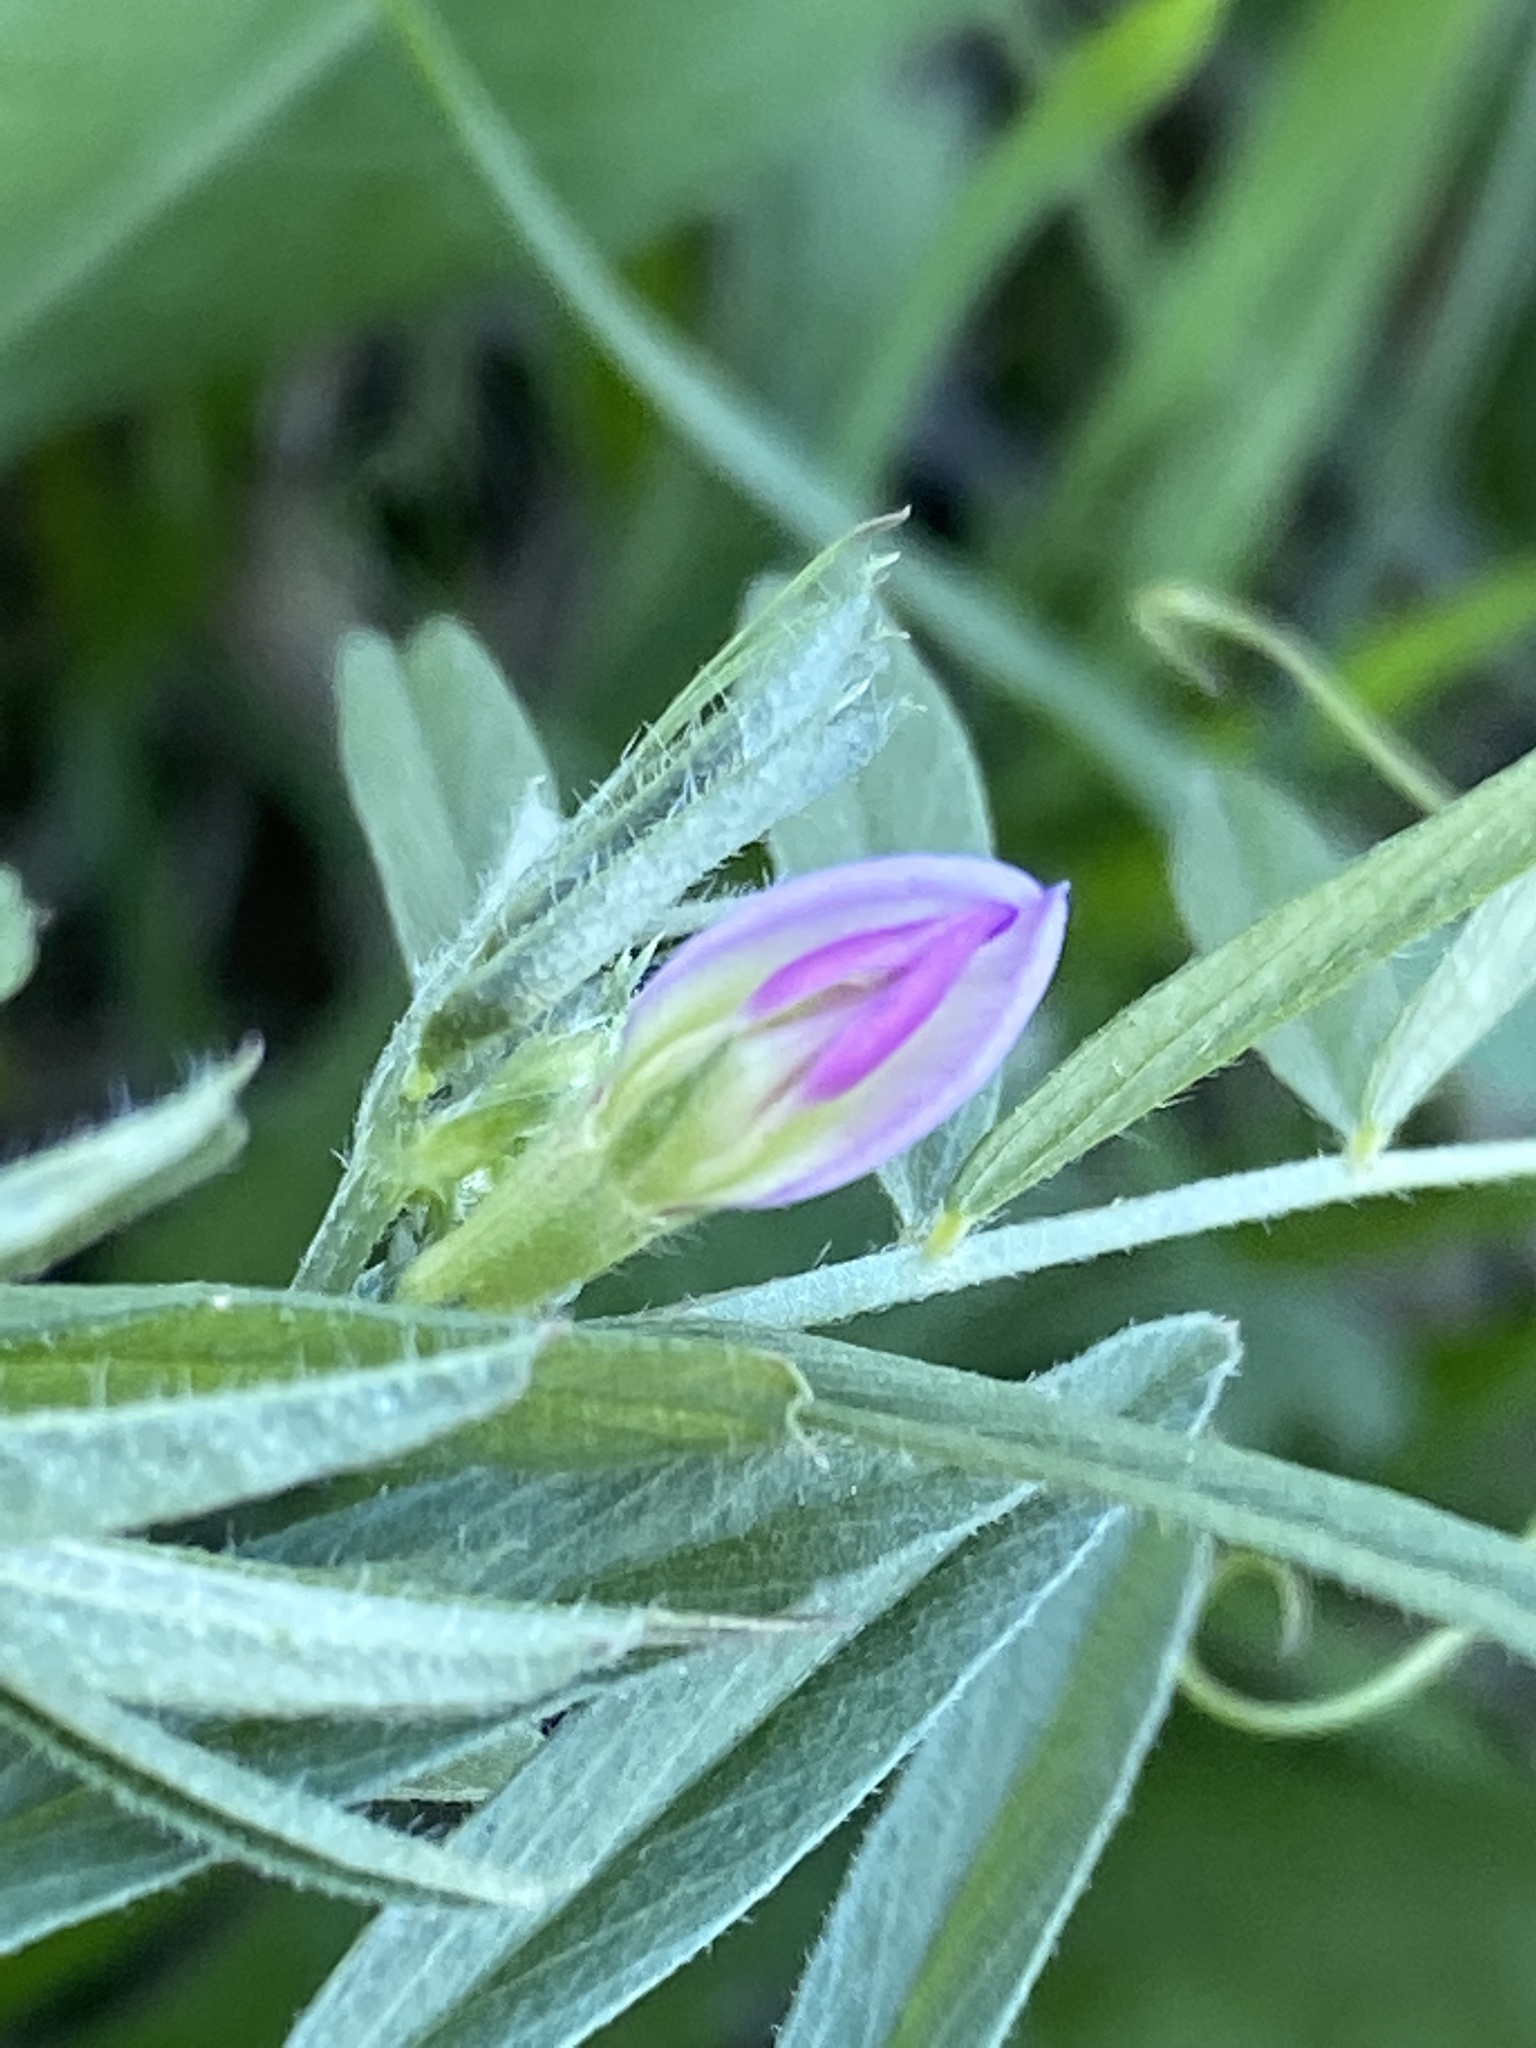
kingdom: Plantae
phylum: Tracheophyta
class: Magnoliopsida
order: Fabales
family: Fabaceae
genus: Vicia
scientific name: Vicia sativa
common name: Garden vetch
